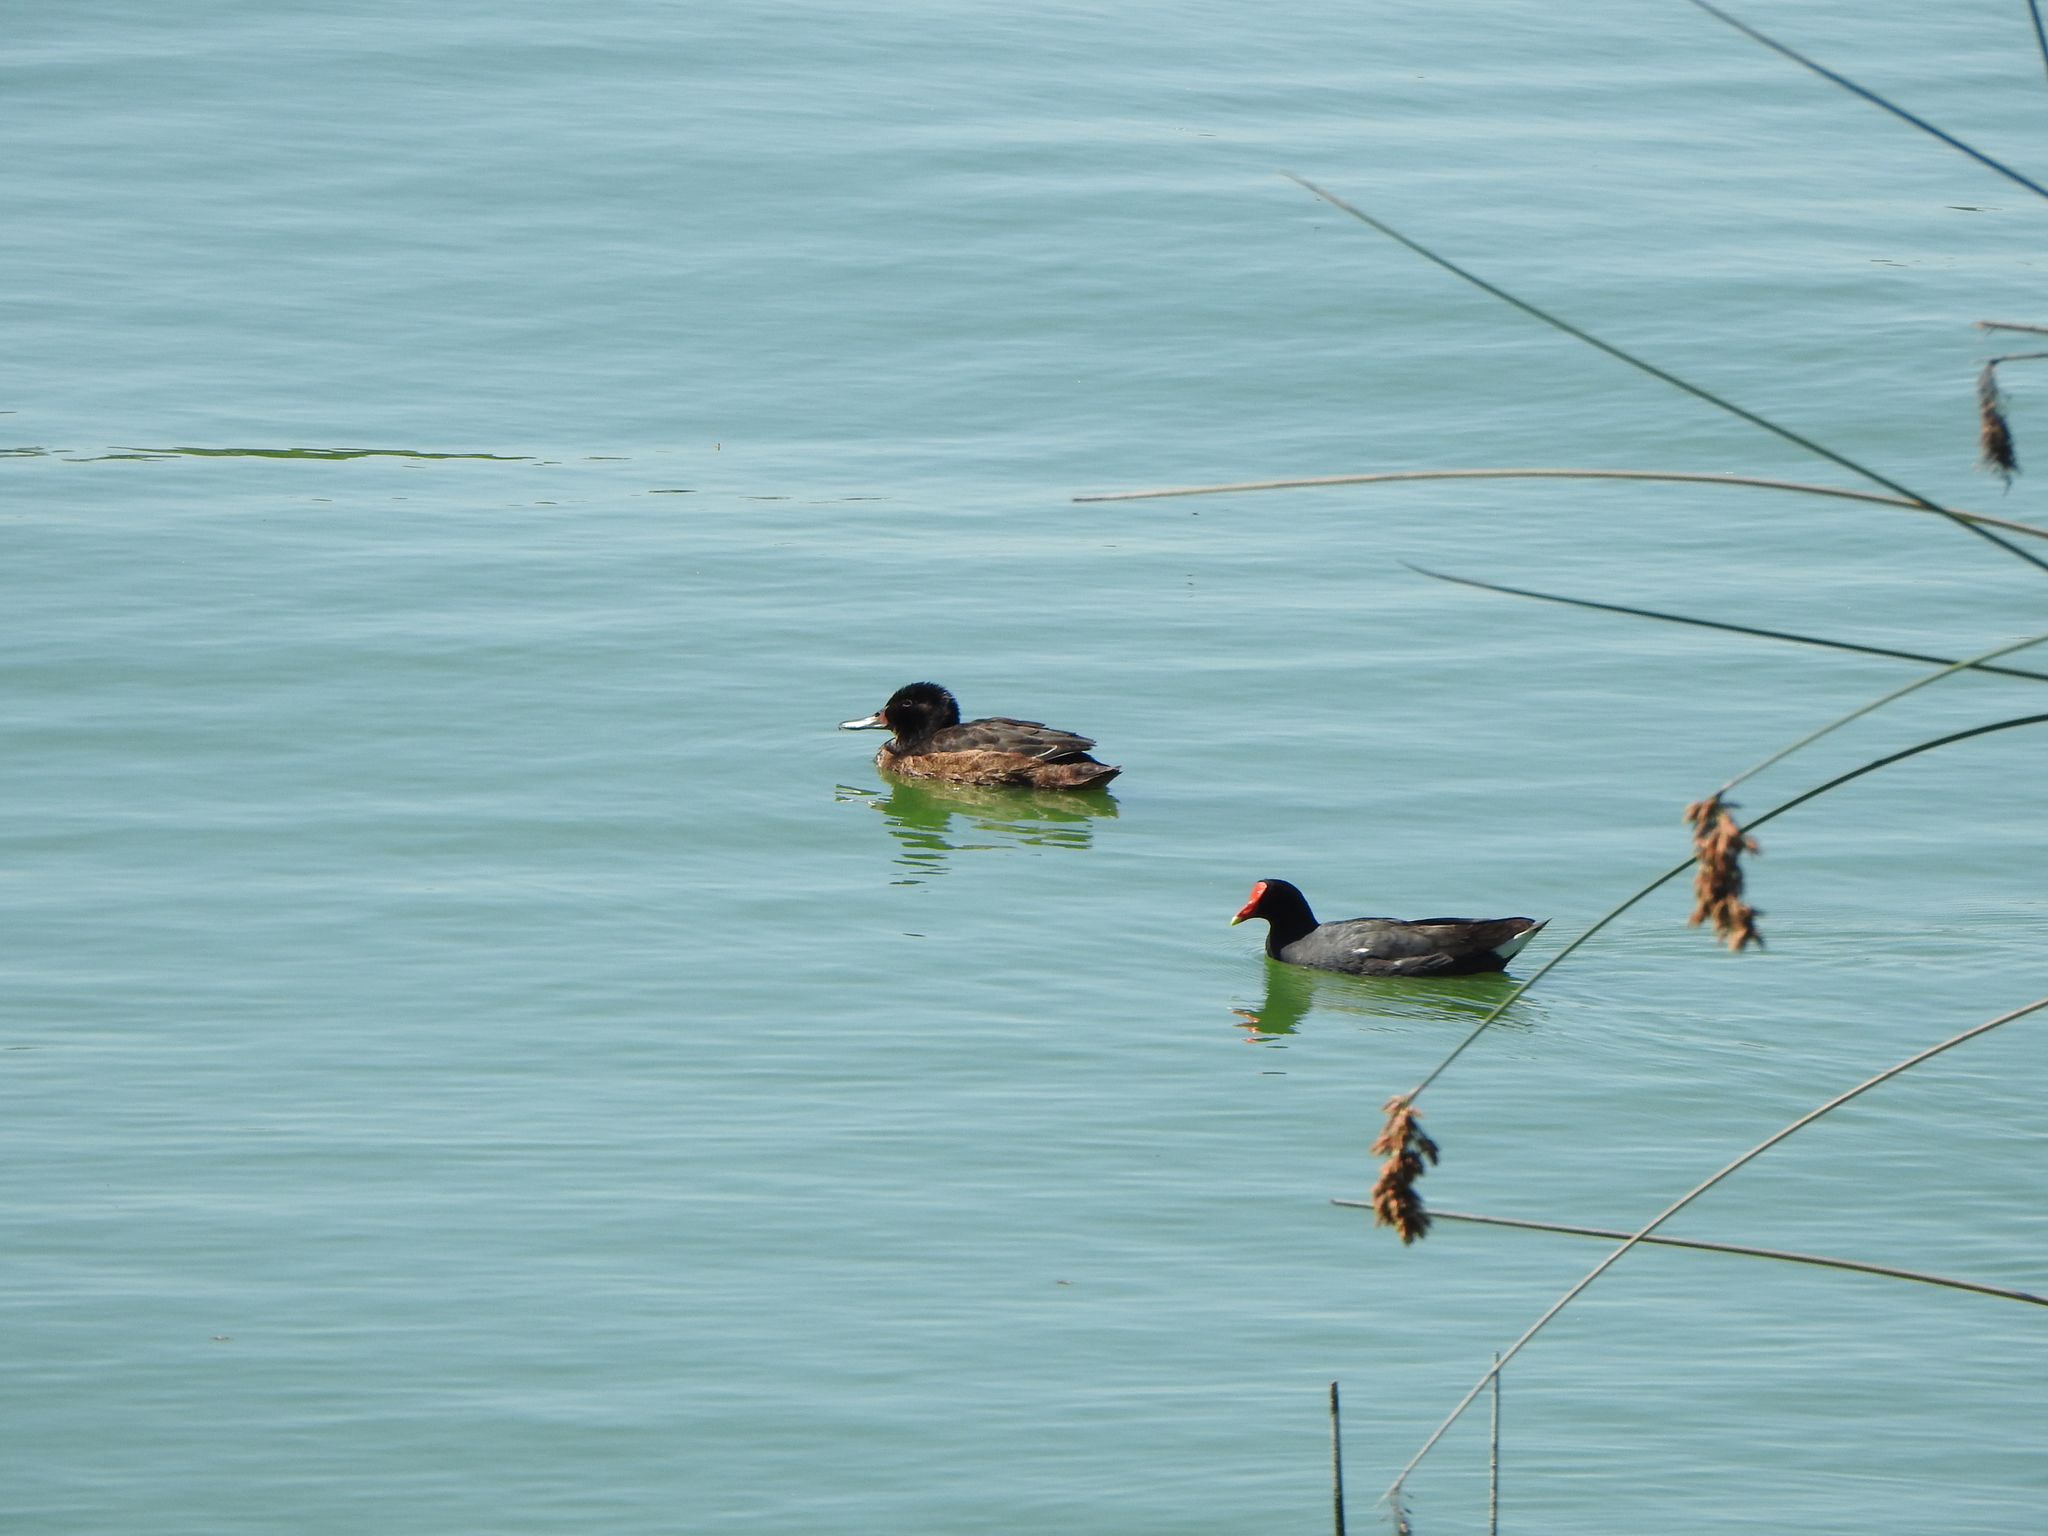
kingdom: Animalia
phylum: Chordata
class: Aves
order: Gruiformes
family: Rallidae
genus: Gallinula
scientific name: Gallinula chloropus
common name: Common moorhen
